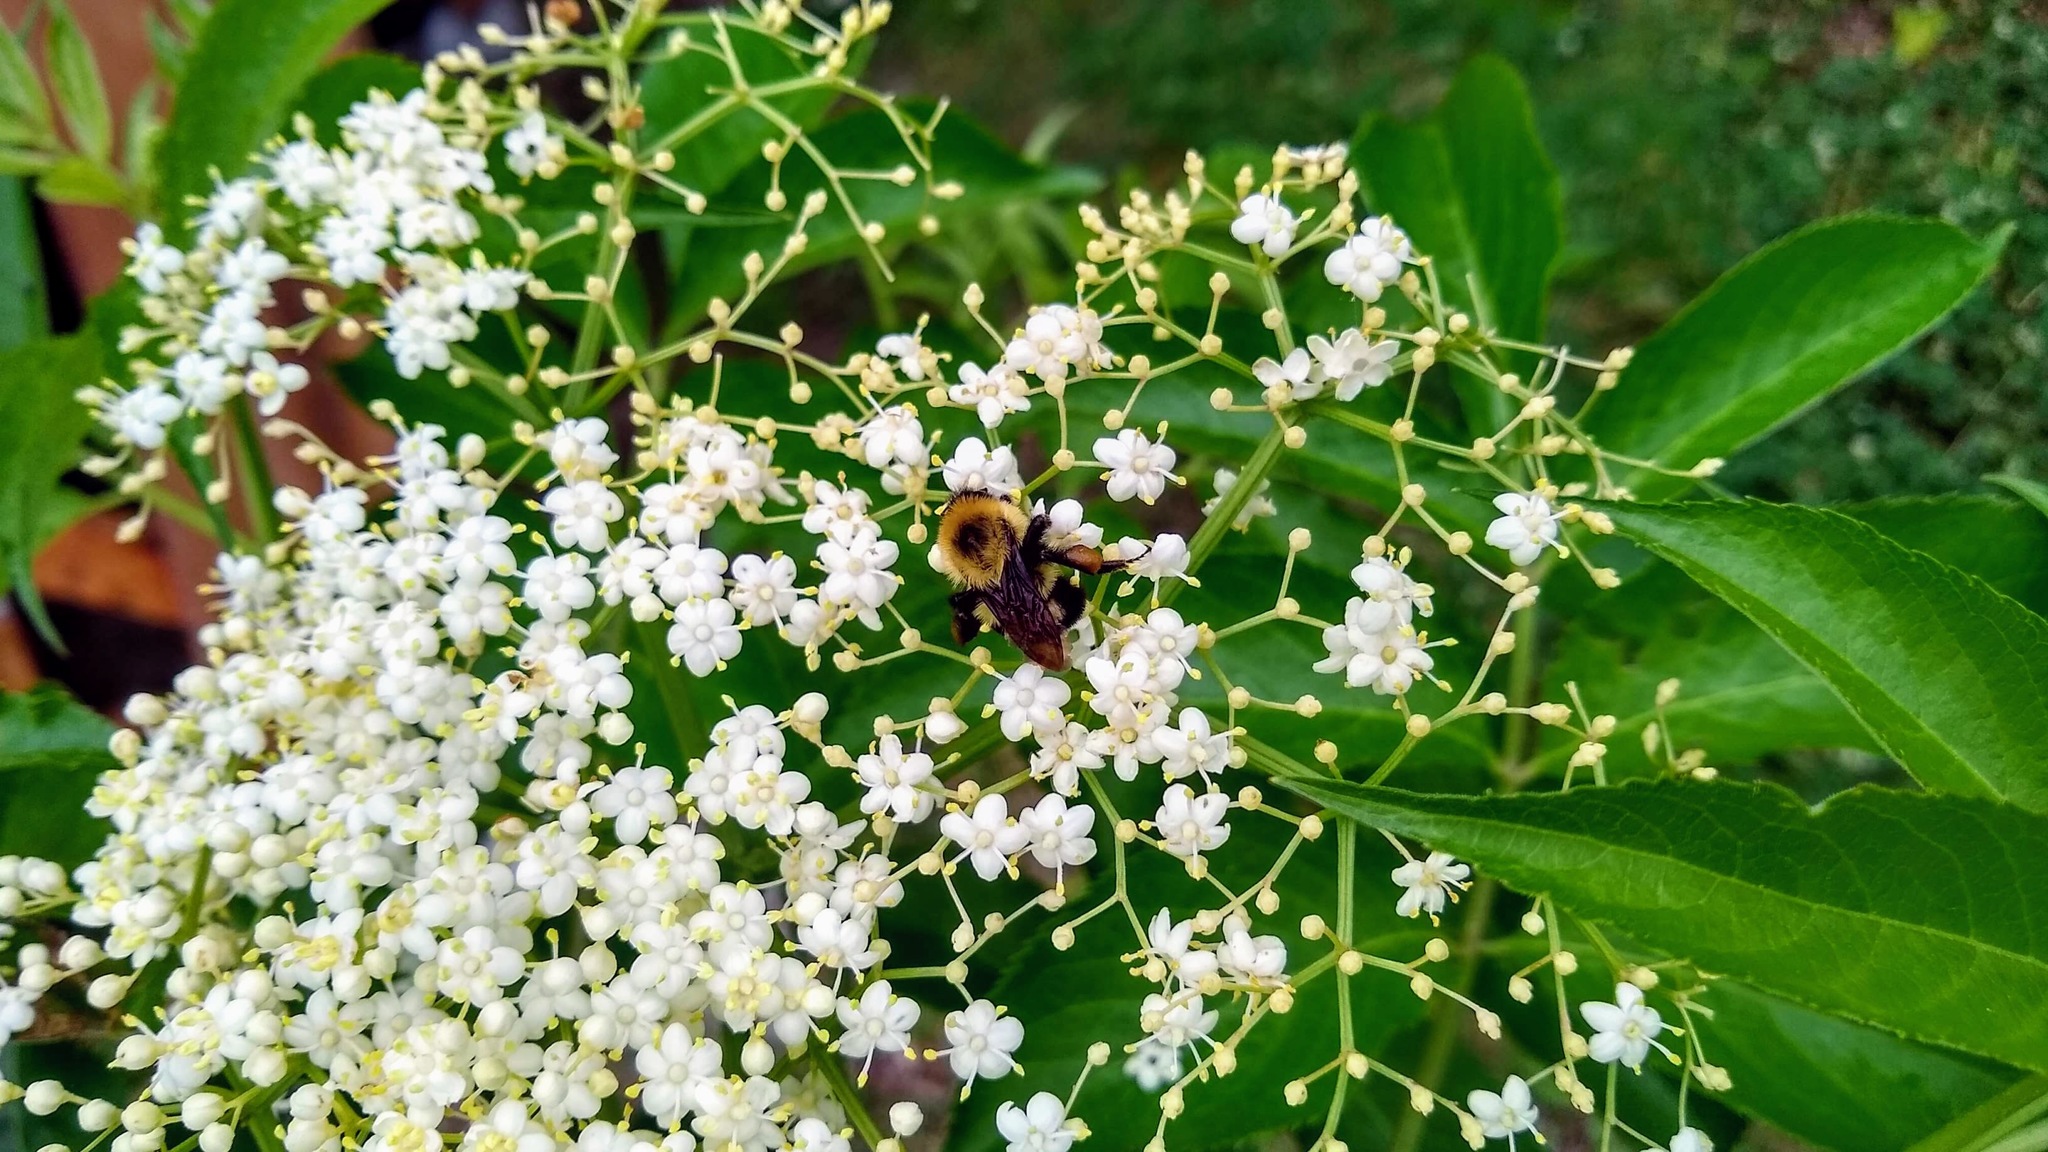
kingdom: Animalia
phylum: Arthropoda
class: Insecta
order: Hymenoptera
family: Apidae
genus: Bombus
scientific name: Bombus bimaculatus
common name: Two-spotted bumble bee
